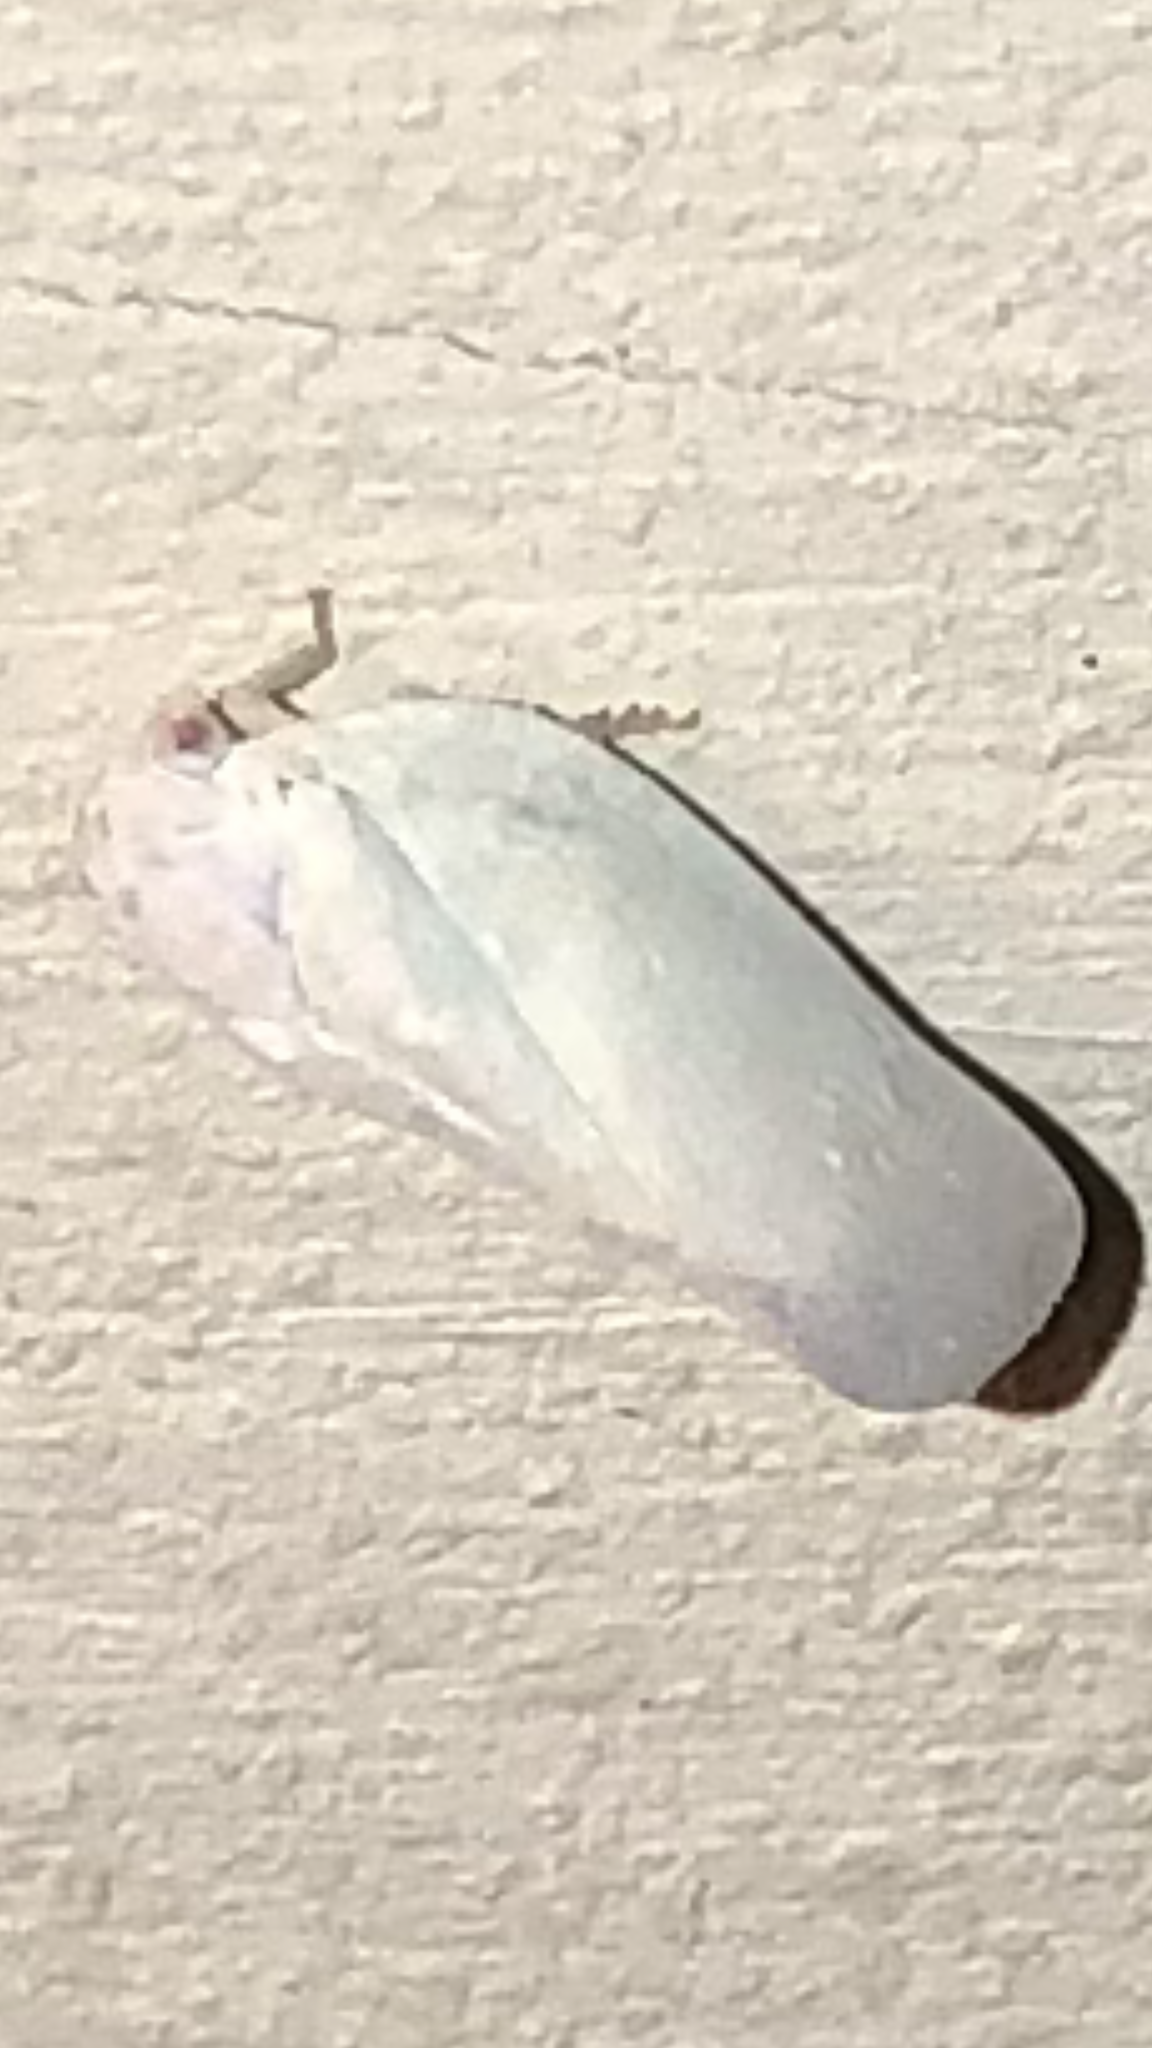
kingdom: Animalia
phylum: Arthropoda
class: Insecta
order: Hemiptera
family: Flatidae
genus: Flatormenis
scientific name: Flatormenis saucia
